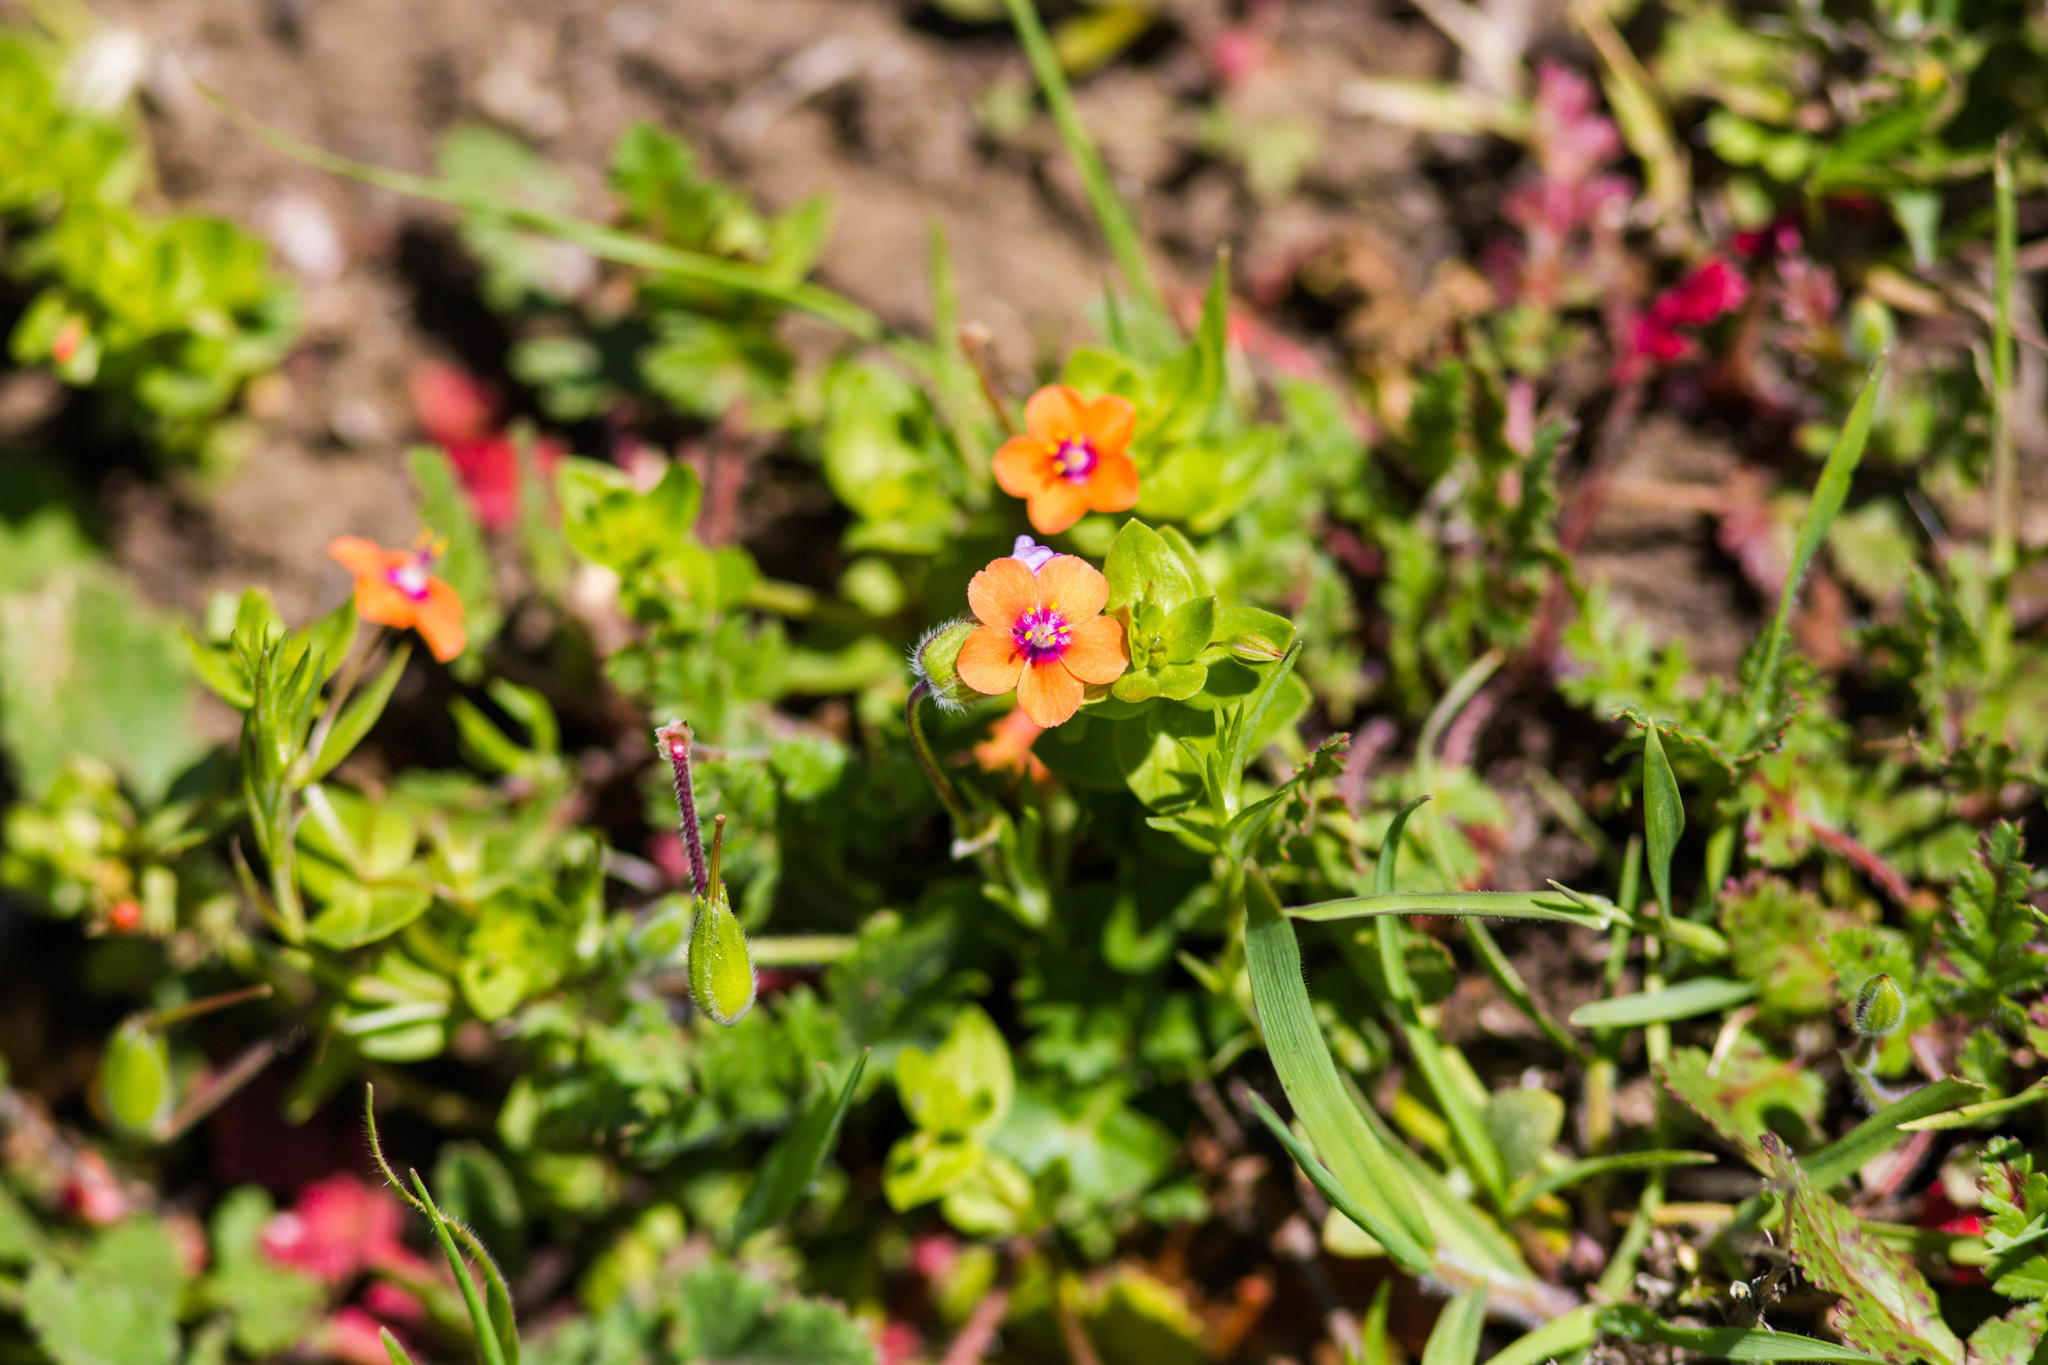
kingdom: Plantae
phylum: Tracheophyta
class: Magnoliopsida
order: Ericales
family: Primulaceae
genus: Lysimachia
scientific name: Lysimachia arvensis
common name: Scarlet pimpernel
